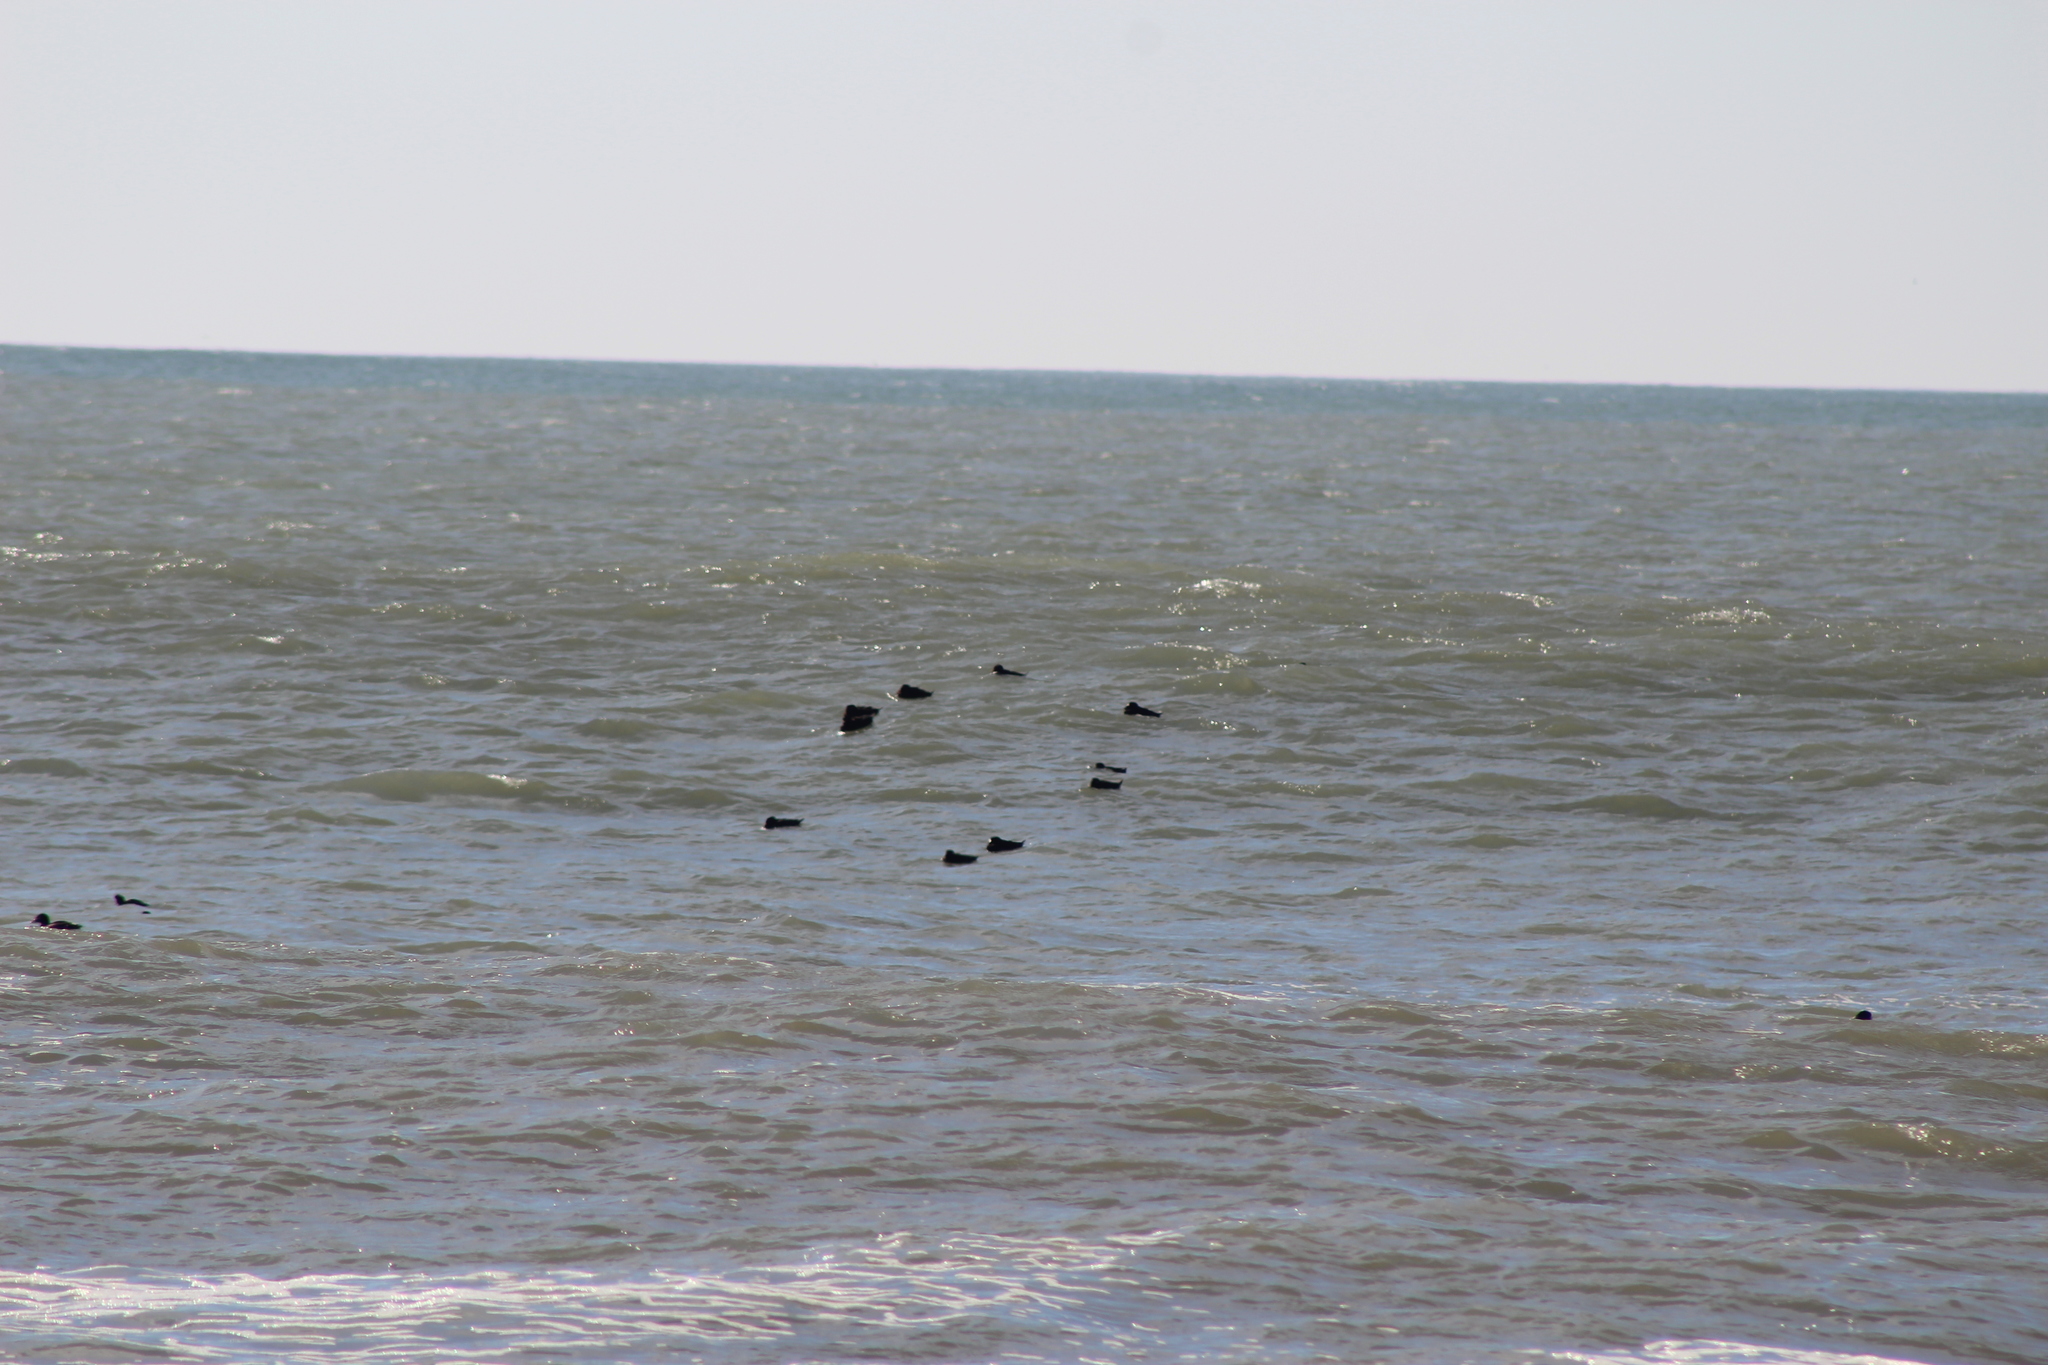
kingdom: Animalia
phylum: Chordata
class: Aves
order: Anseriformes
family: Anatidae
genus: Melanitta
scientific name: Melanitta perspicillata
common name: Surf scoter
